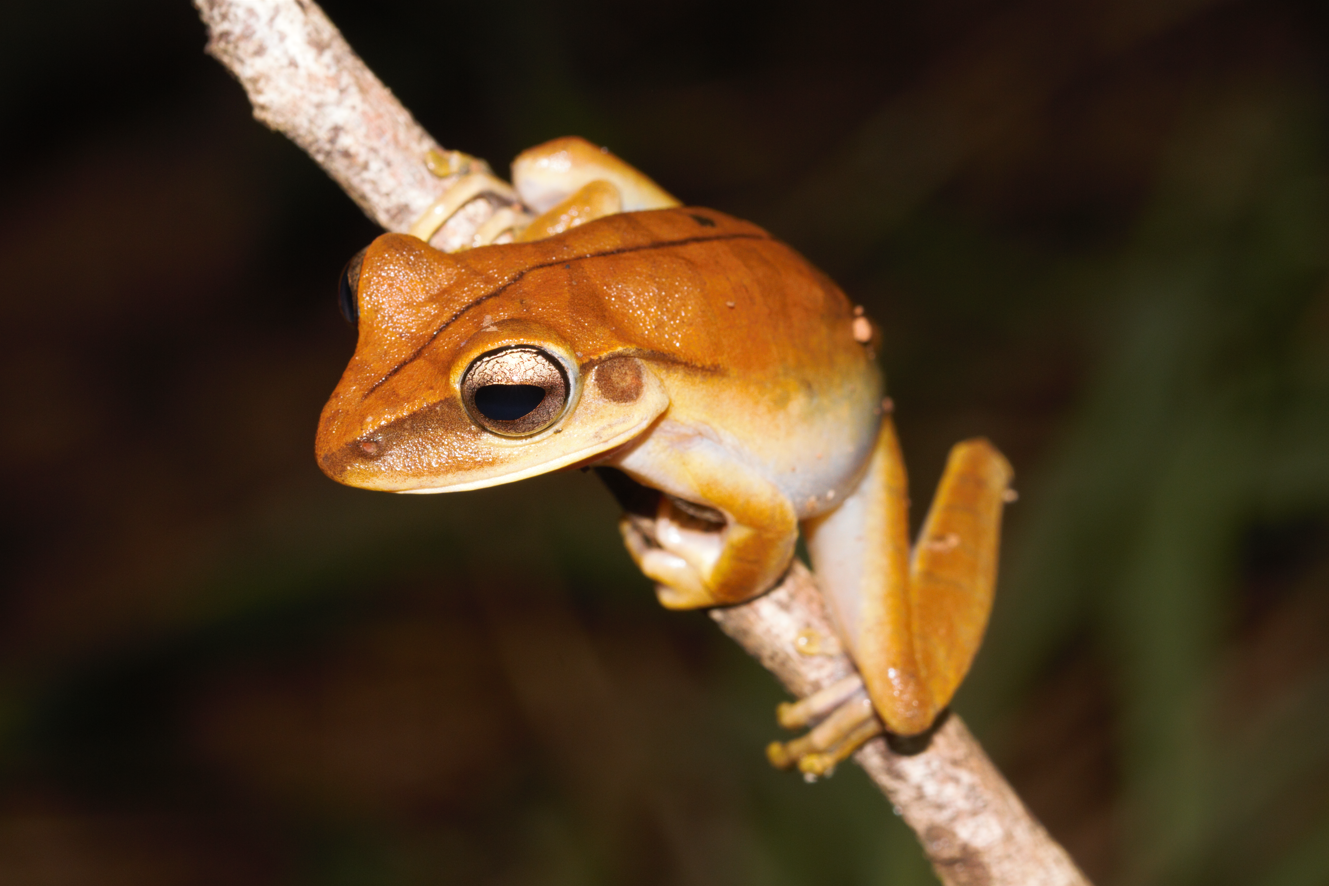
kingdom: Animalia
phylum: Chordata
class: Amphibia
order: Anura
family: Hylidae
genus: Boana
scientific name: Boana multifasciata
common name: Many-banded treefrog
